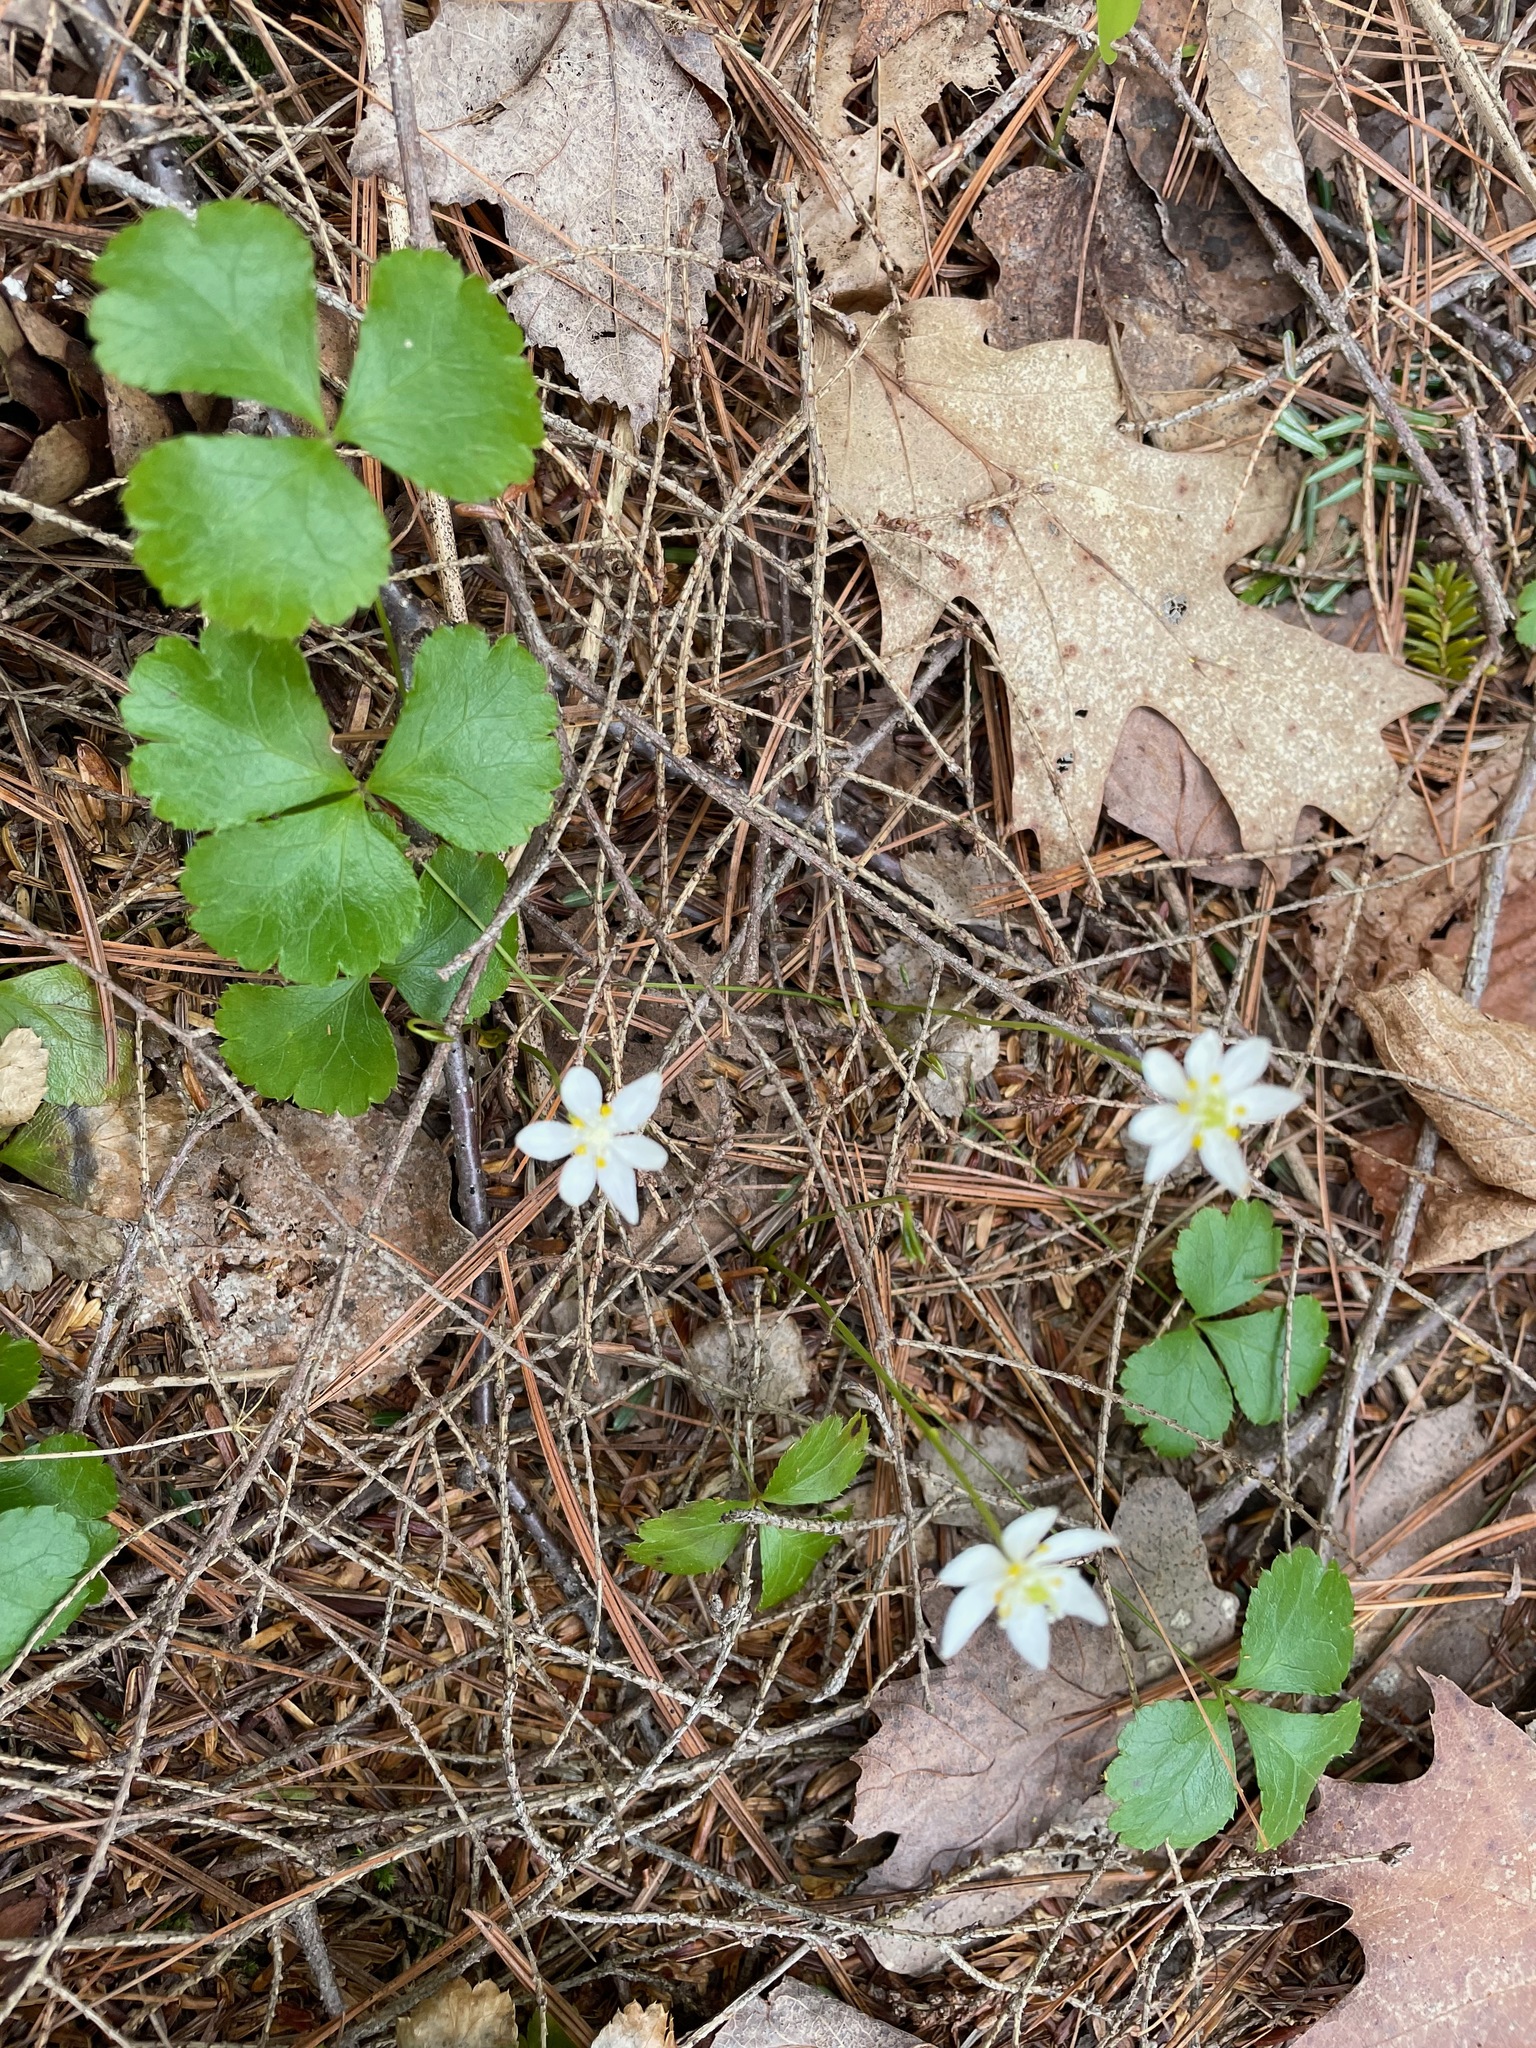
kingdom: Plantae
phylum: Tracheophyta
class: Magnoliopsida
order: Ranunculales
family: Ranunculaceae
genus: Coptis
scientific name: Coptis trifolia
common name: Canker-root
